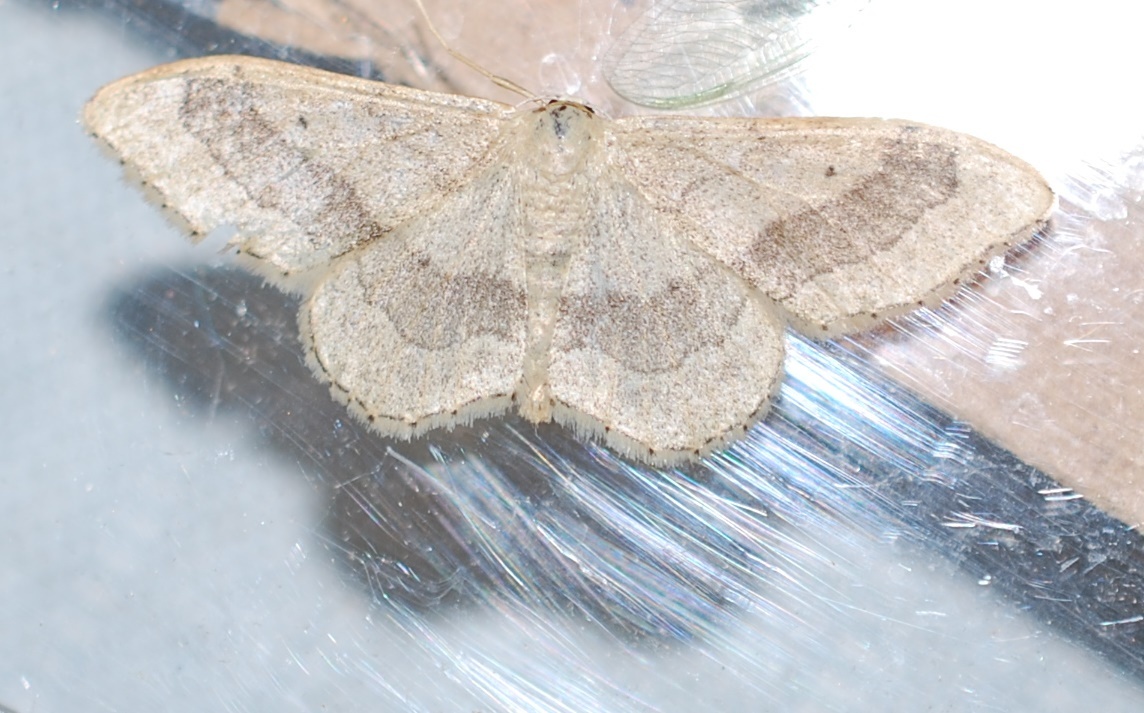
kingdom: Animalia
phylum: Arthropoda
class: Insecta
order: Lepidoptera
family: Geometridae
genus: Idaea
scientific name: Idaea aversata
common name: Riband wave
